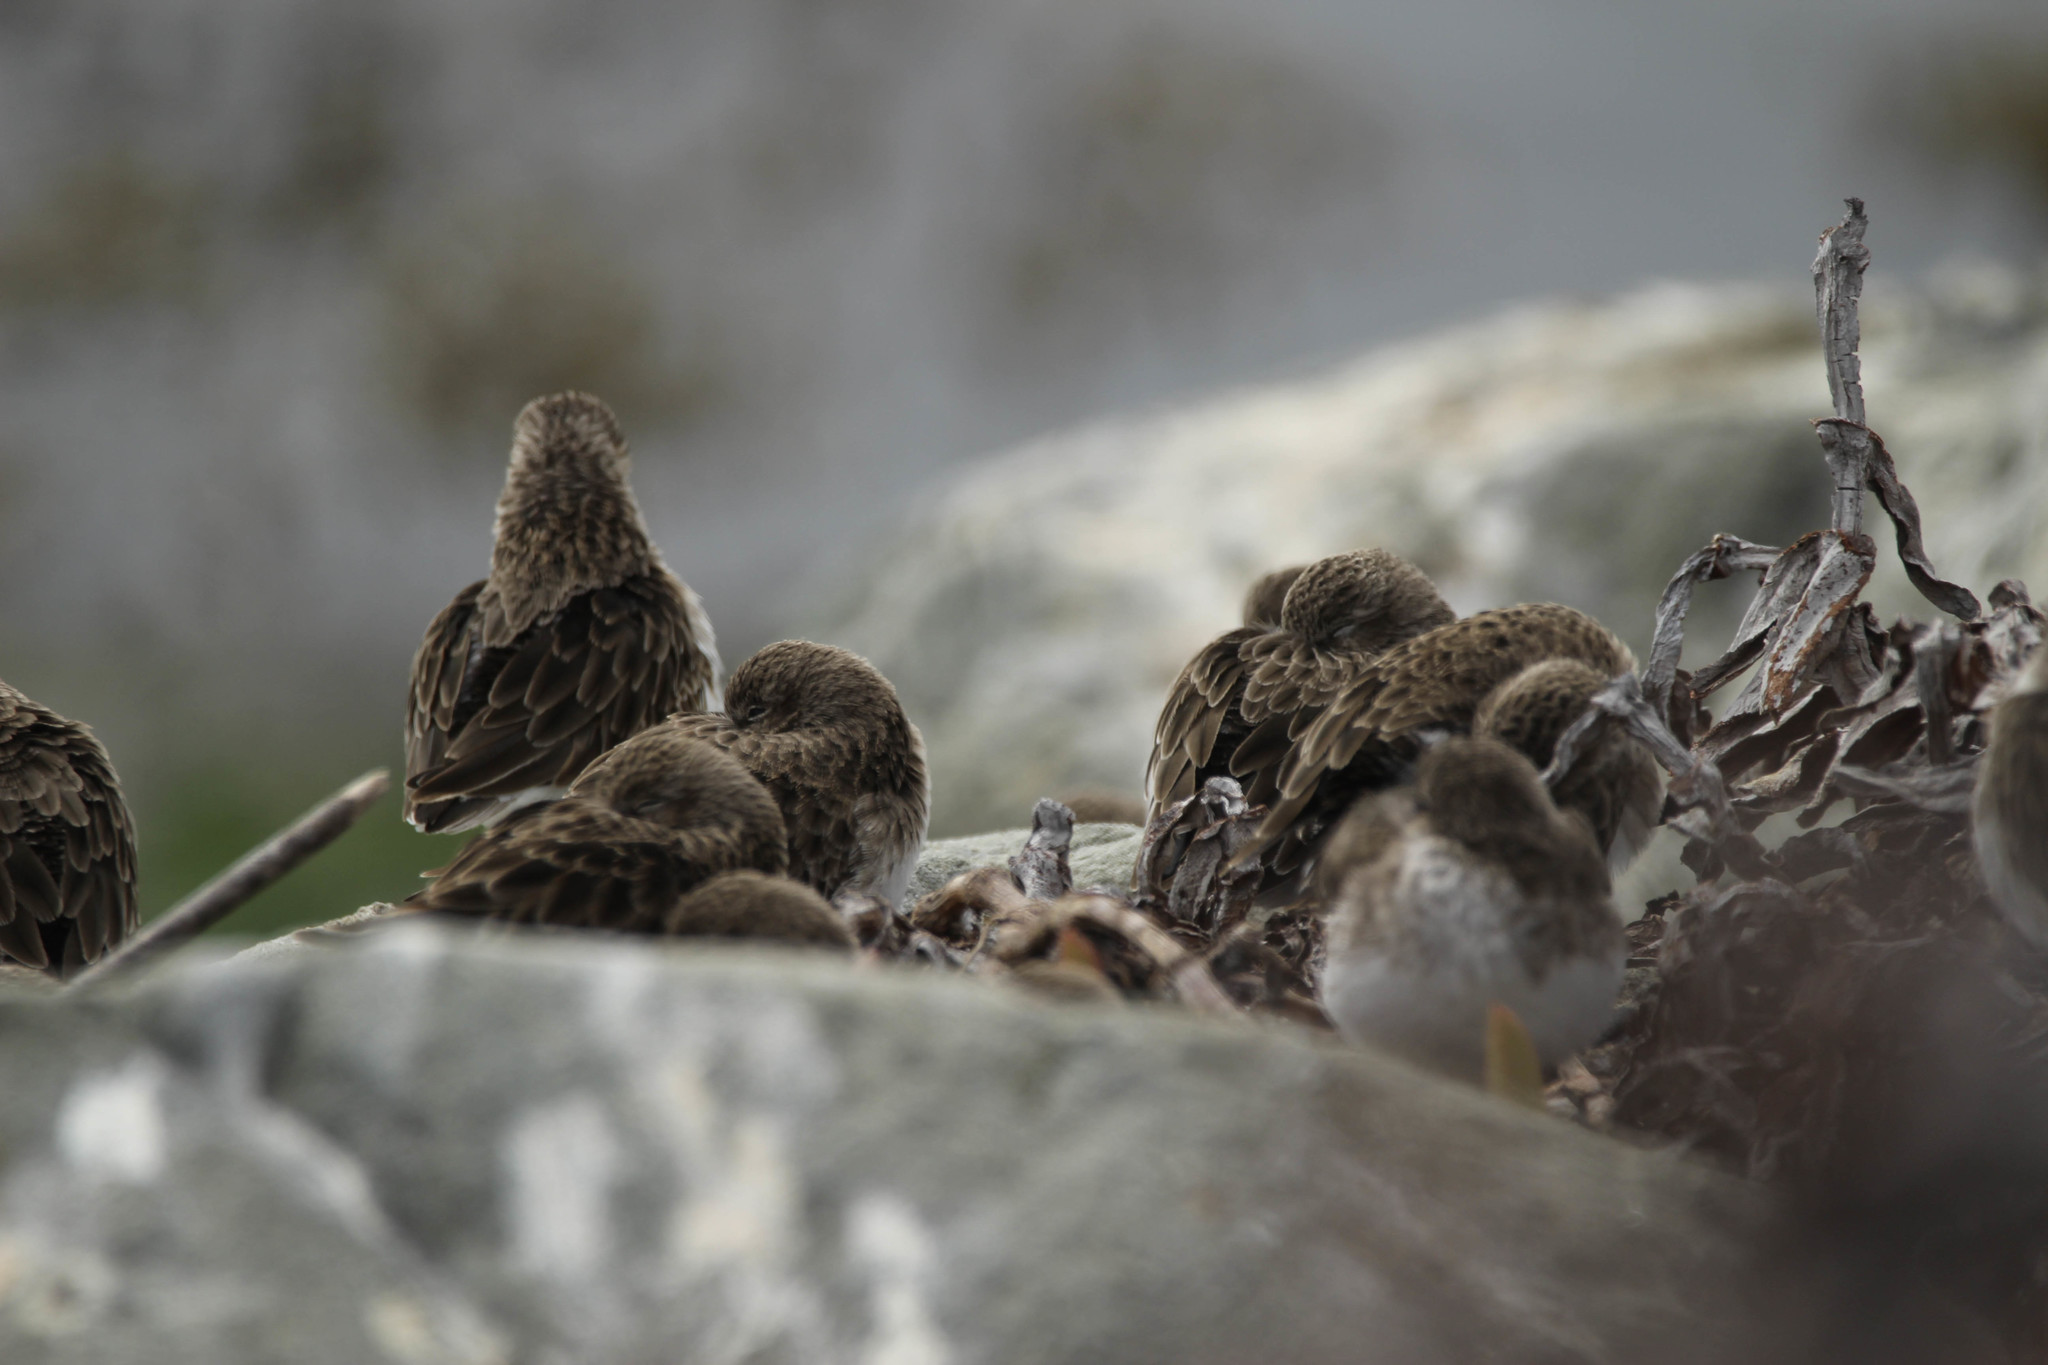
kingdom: Animalia
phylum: Chordata
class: Aves
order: Charadriiformes
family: Scolopacidae
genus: Calidris
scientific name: Calidris minutilla
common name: Least sandpiper
